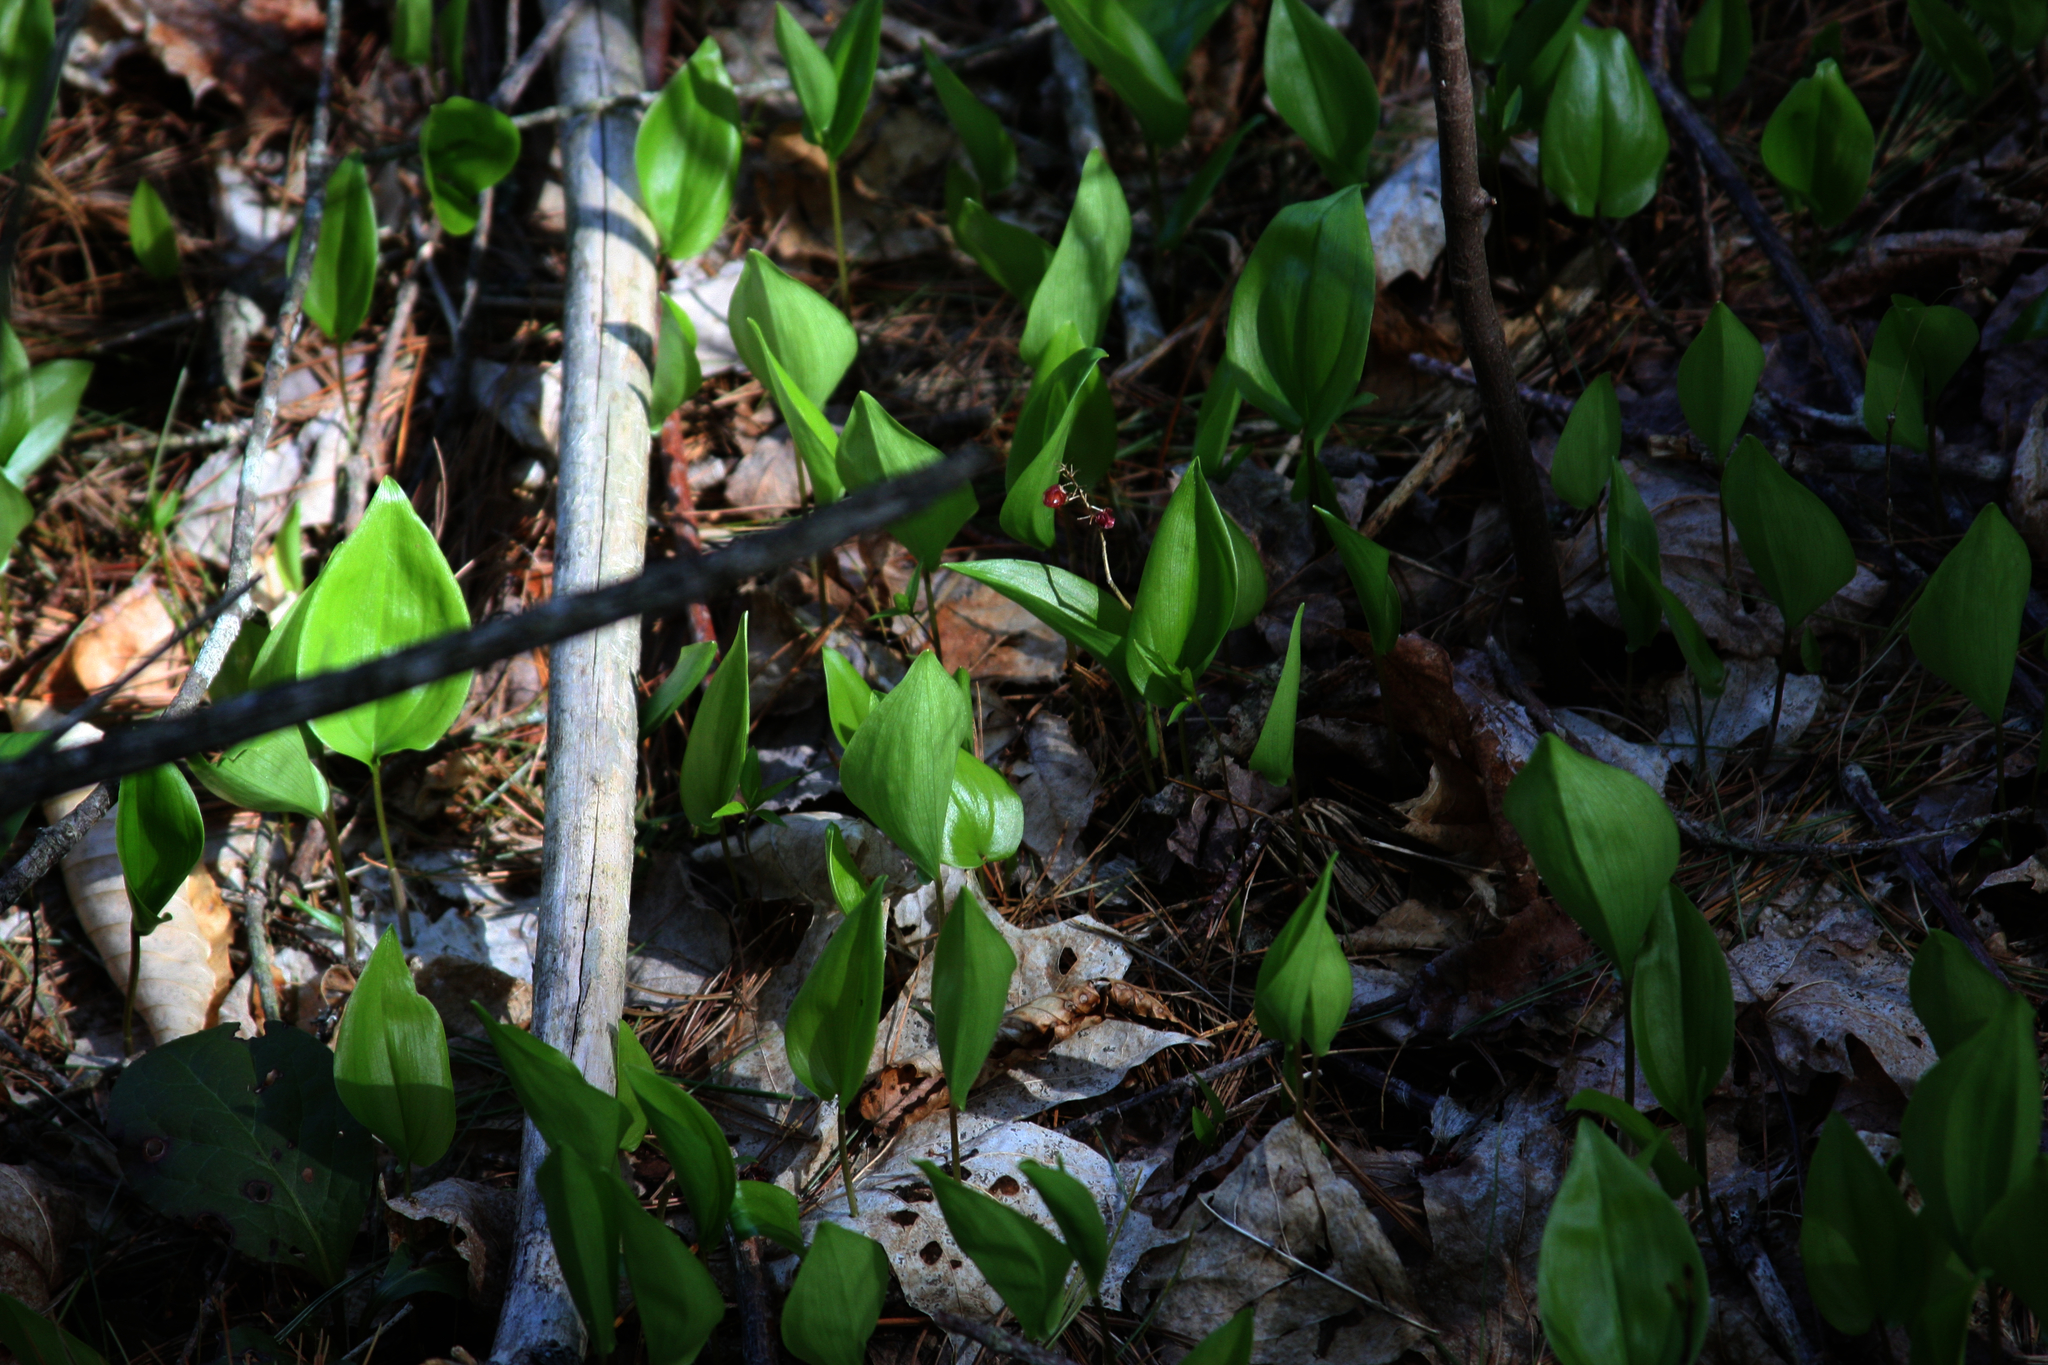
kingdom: Plantae
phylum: Tracheophyta
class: Liliopsida
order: Asparagales
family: Asparagaceae
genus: Maianthemum
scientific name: Maianthemum canadense
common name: False lily-of-the-valley
